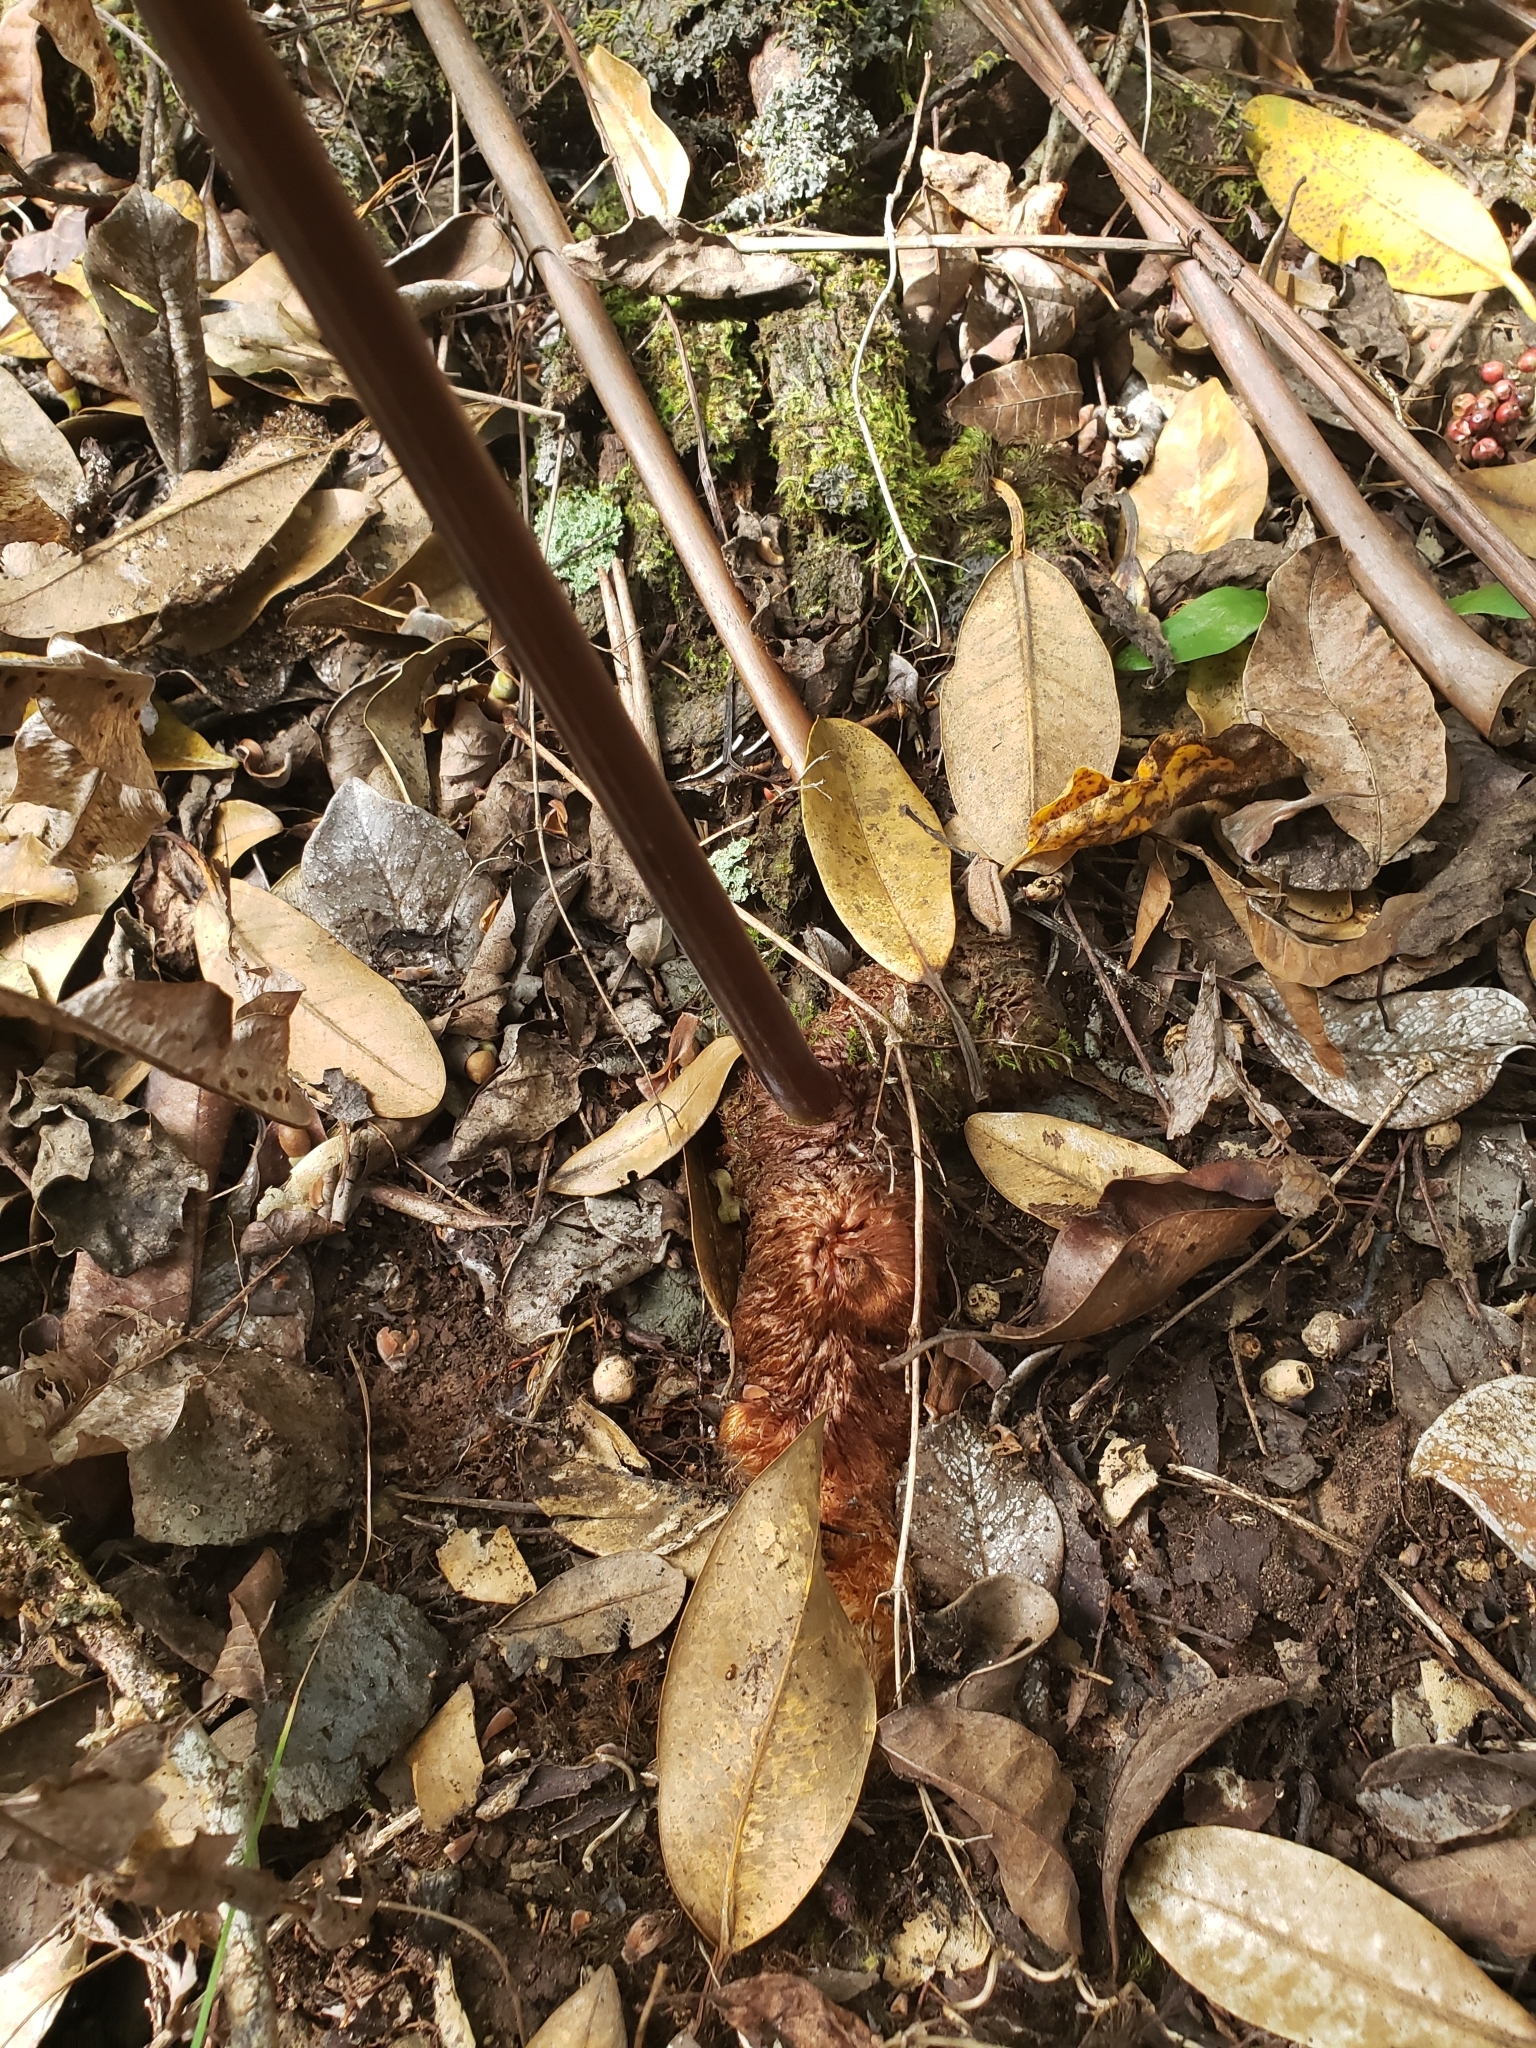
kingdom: Plantae
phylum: Tracheophyta
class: Polypodiopsida
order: Polypodiales
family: Polypodiaceae
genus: Phlebodium
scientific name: Phlebodium aureum
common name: Gold-foot fern
